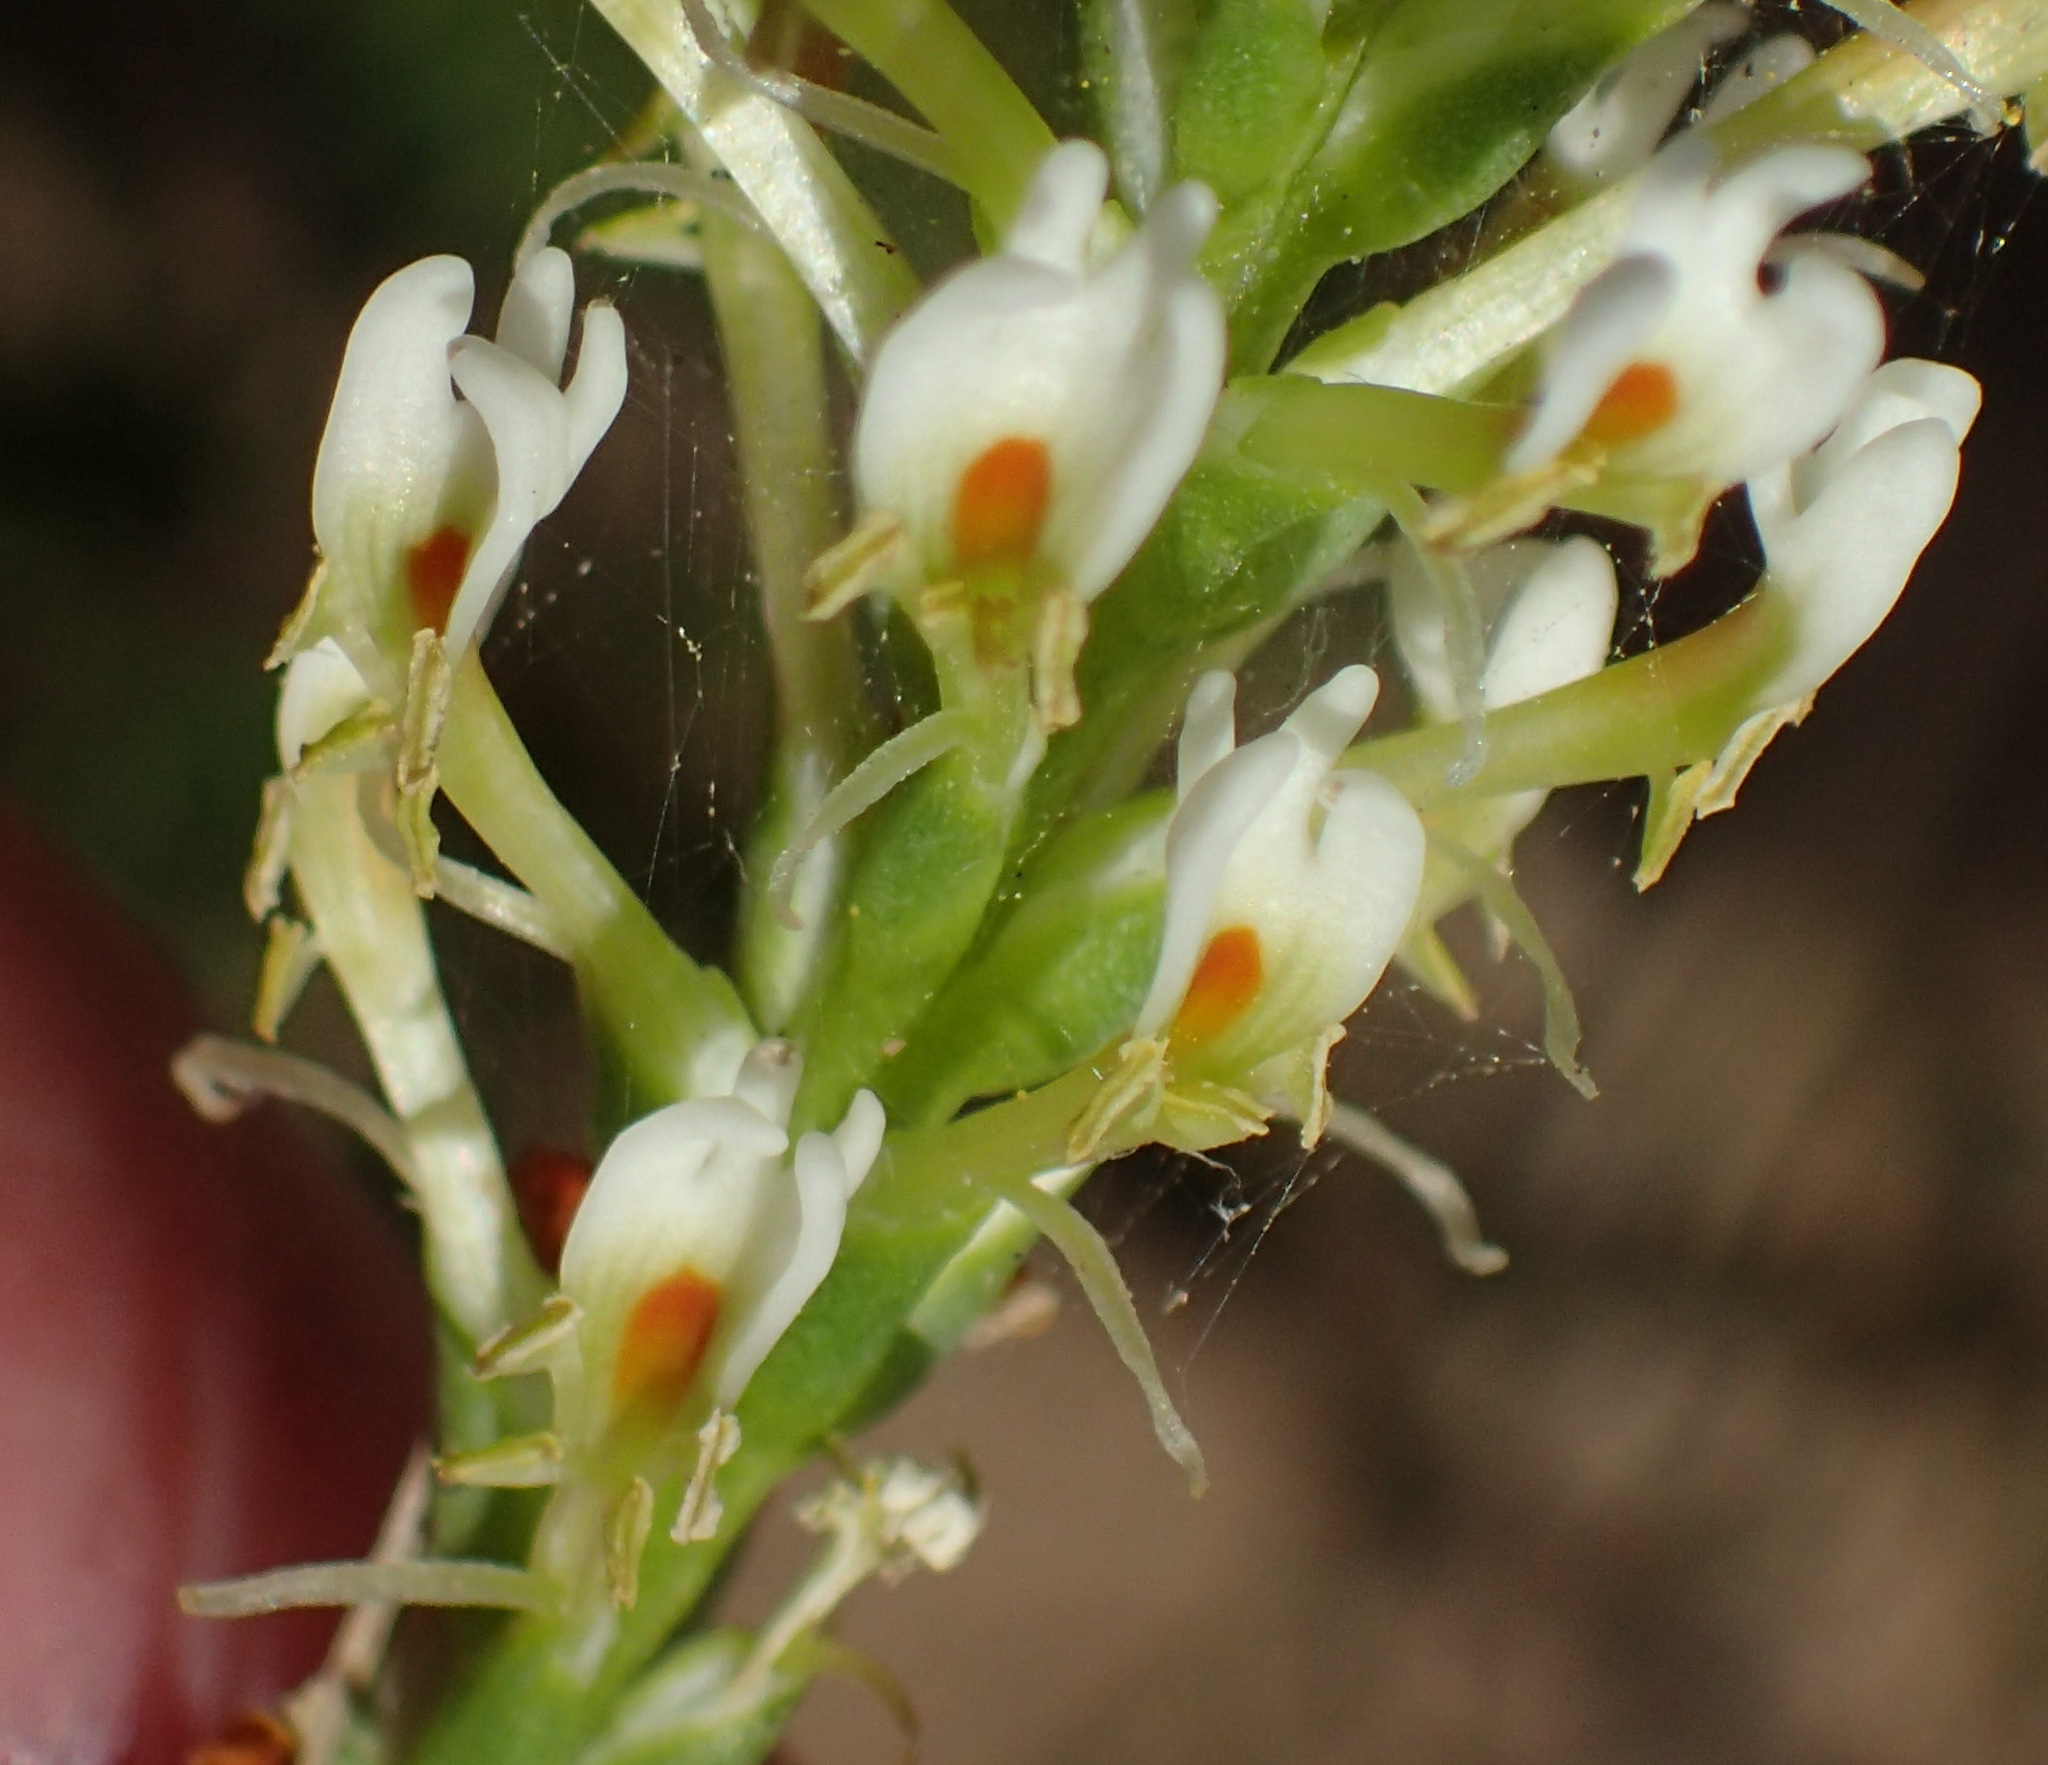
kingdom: Plantae
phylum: Tracheophyta
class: Magnoliopsida
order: Lamiales
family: Scrophulariaceae
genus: Hebenstretia
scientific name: Hebenstretia integrifolia
